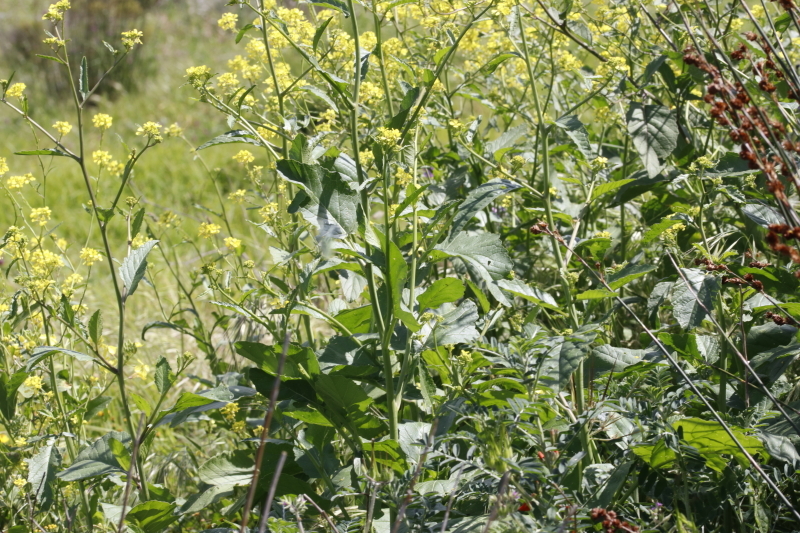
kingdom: Plantae
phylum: Tracheophyta
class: Magnoliopsida
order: Brassicales
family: Brassicaceae
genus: Rapistrum
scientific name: Rapistrum rugosum
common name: Annual bastardcabbage
